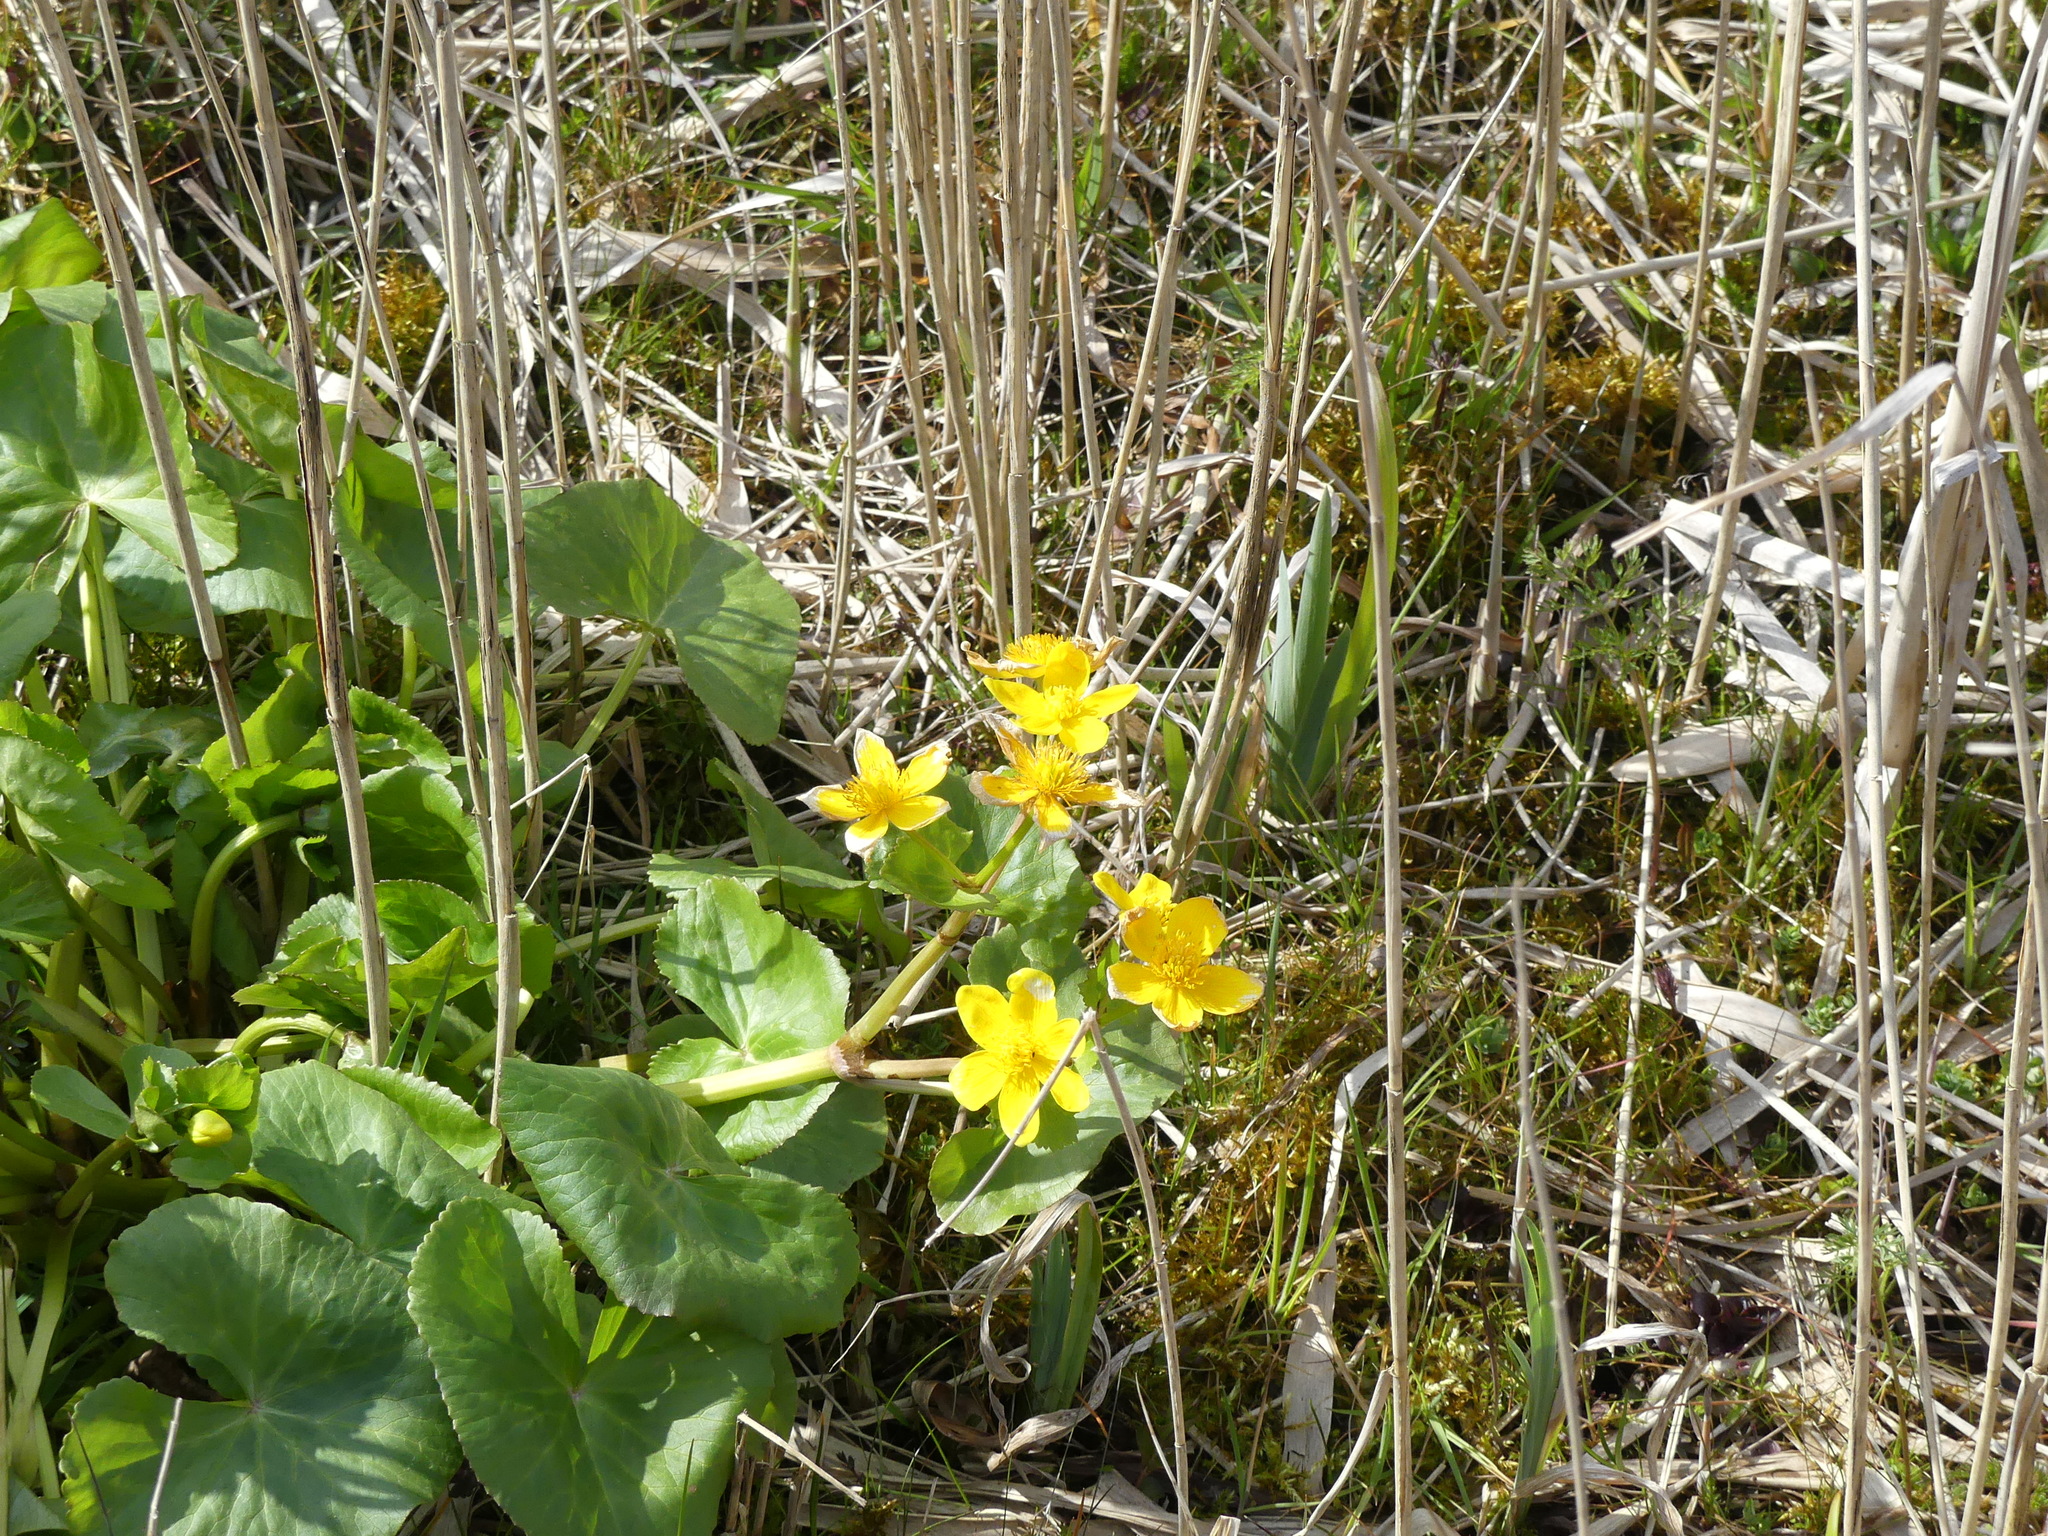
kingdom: Plantae
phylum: Tracheophyta
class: Magnoliopsida
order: Ranunculales
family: Ranunculaceae
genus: Caltha
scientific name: Caltha palustris
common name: Marsh marigold
